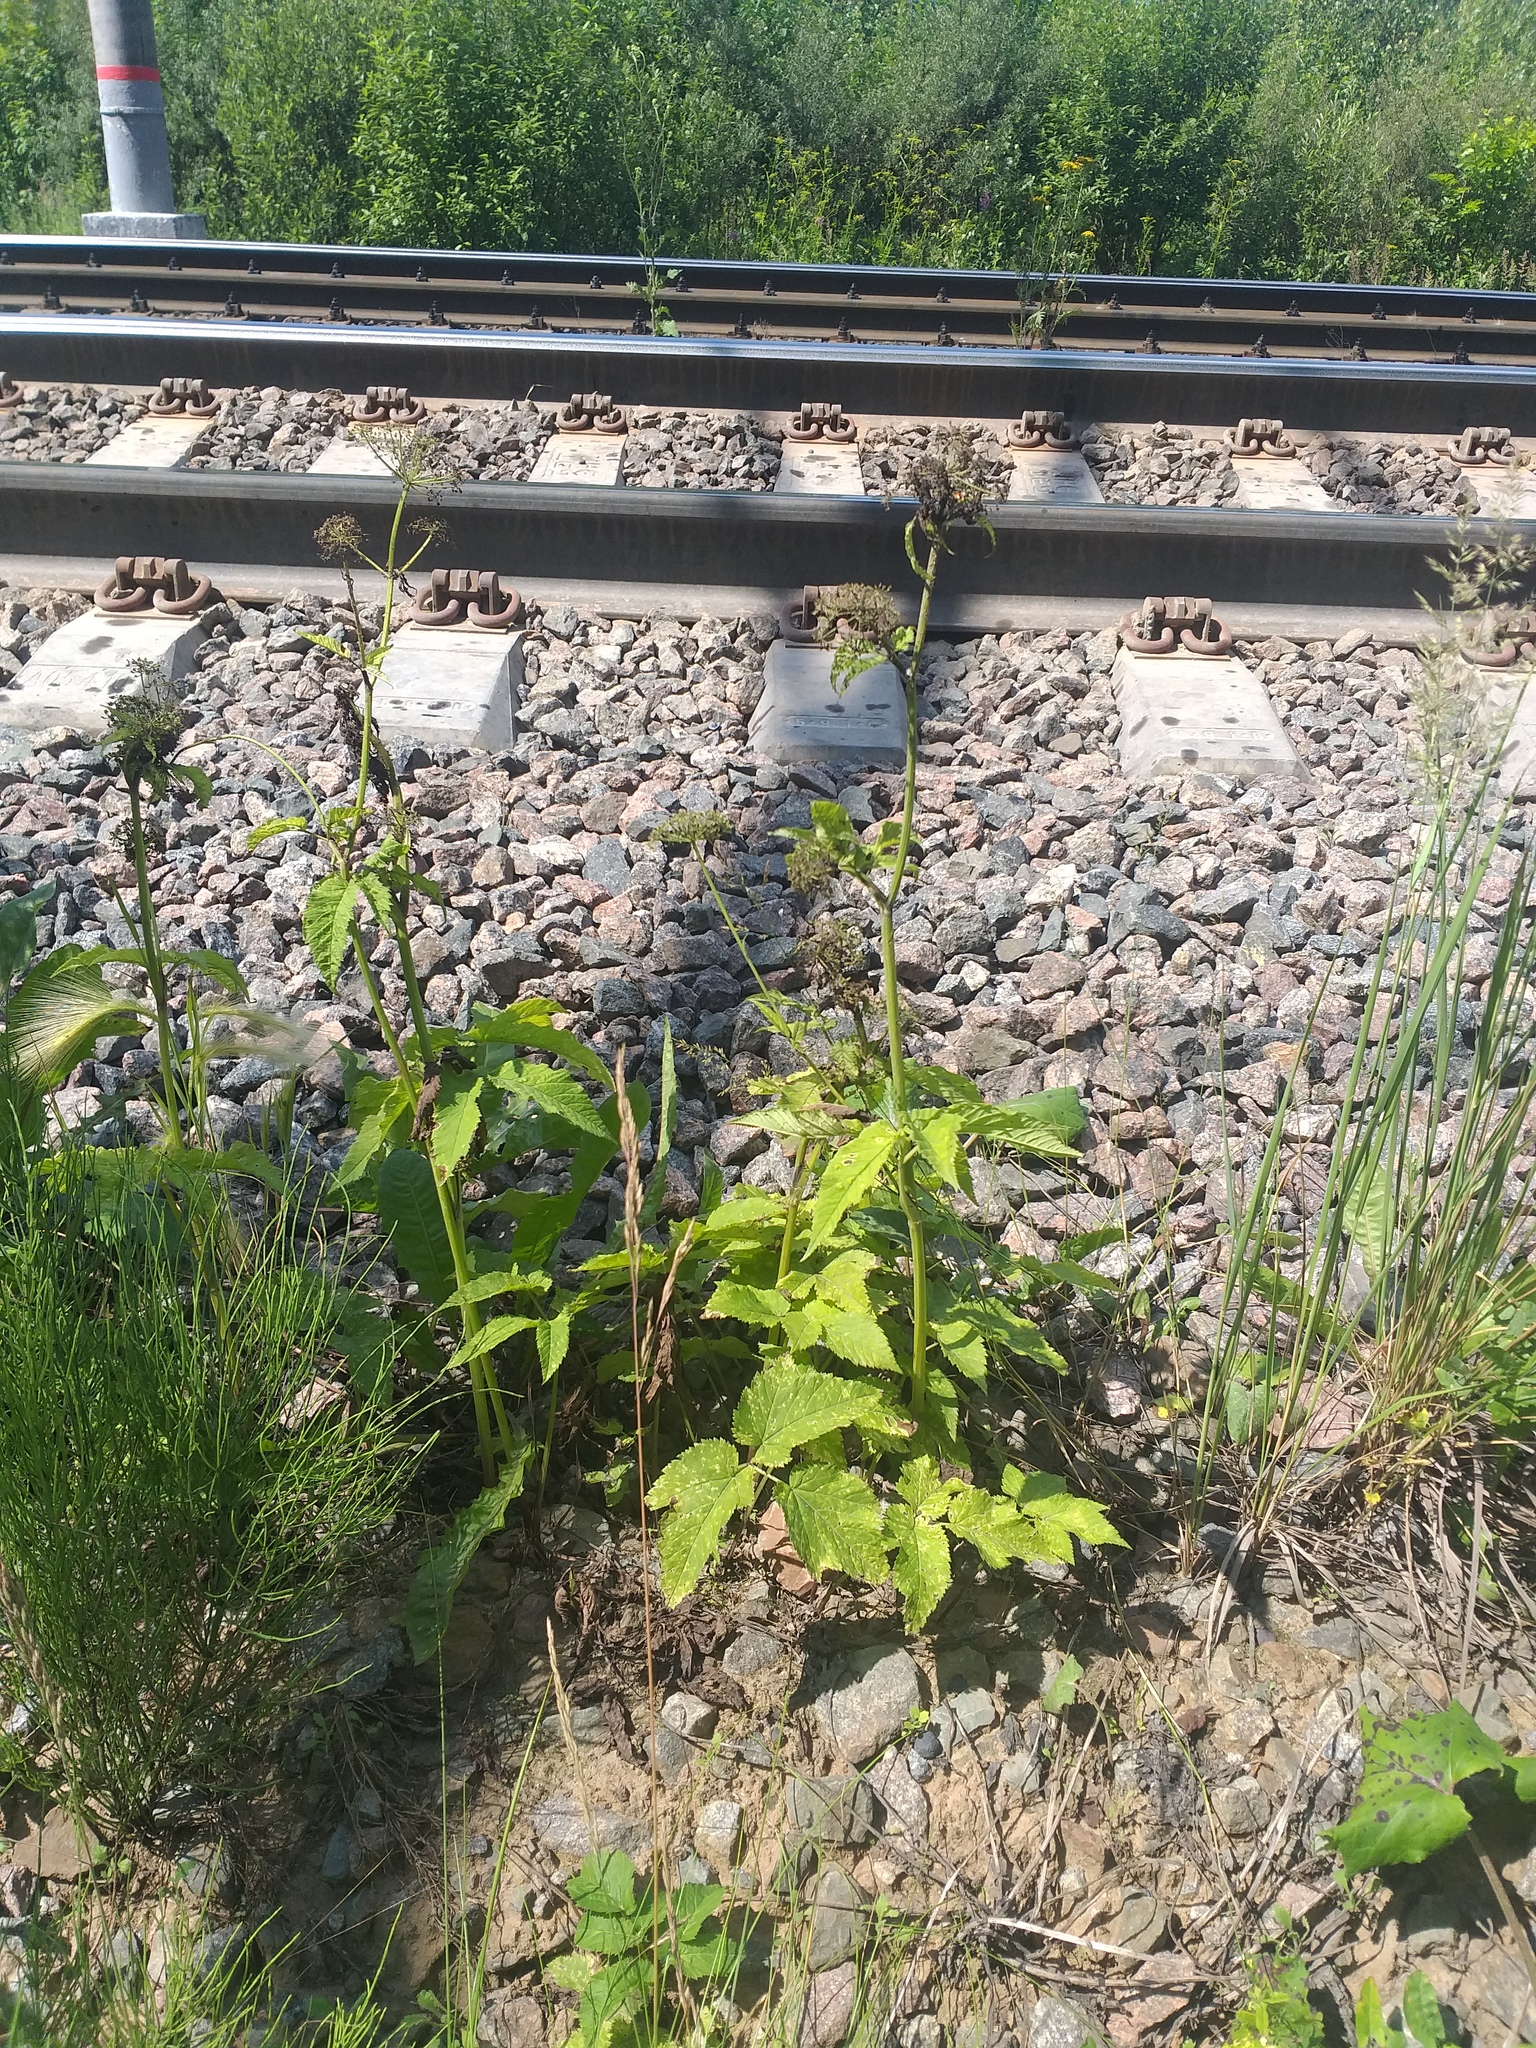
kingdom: Plantae
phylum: Tracheophyta
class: Magnoliopsida
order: Apiales
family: Apiaceae
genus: Aegopodium
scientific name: Aegopodium podagraria
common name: Ground-elder
